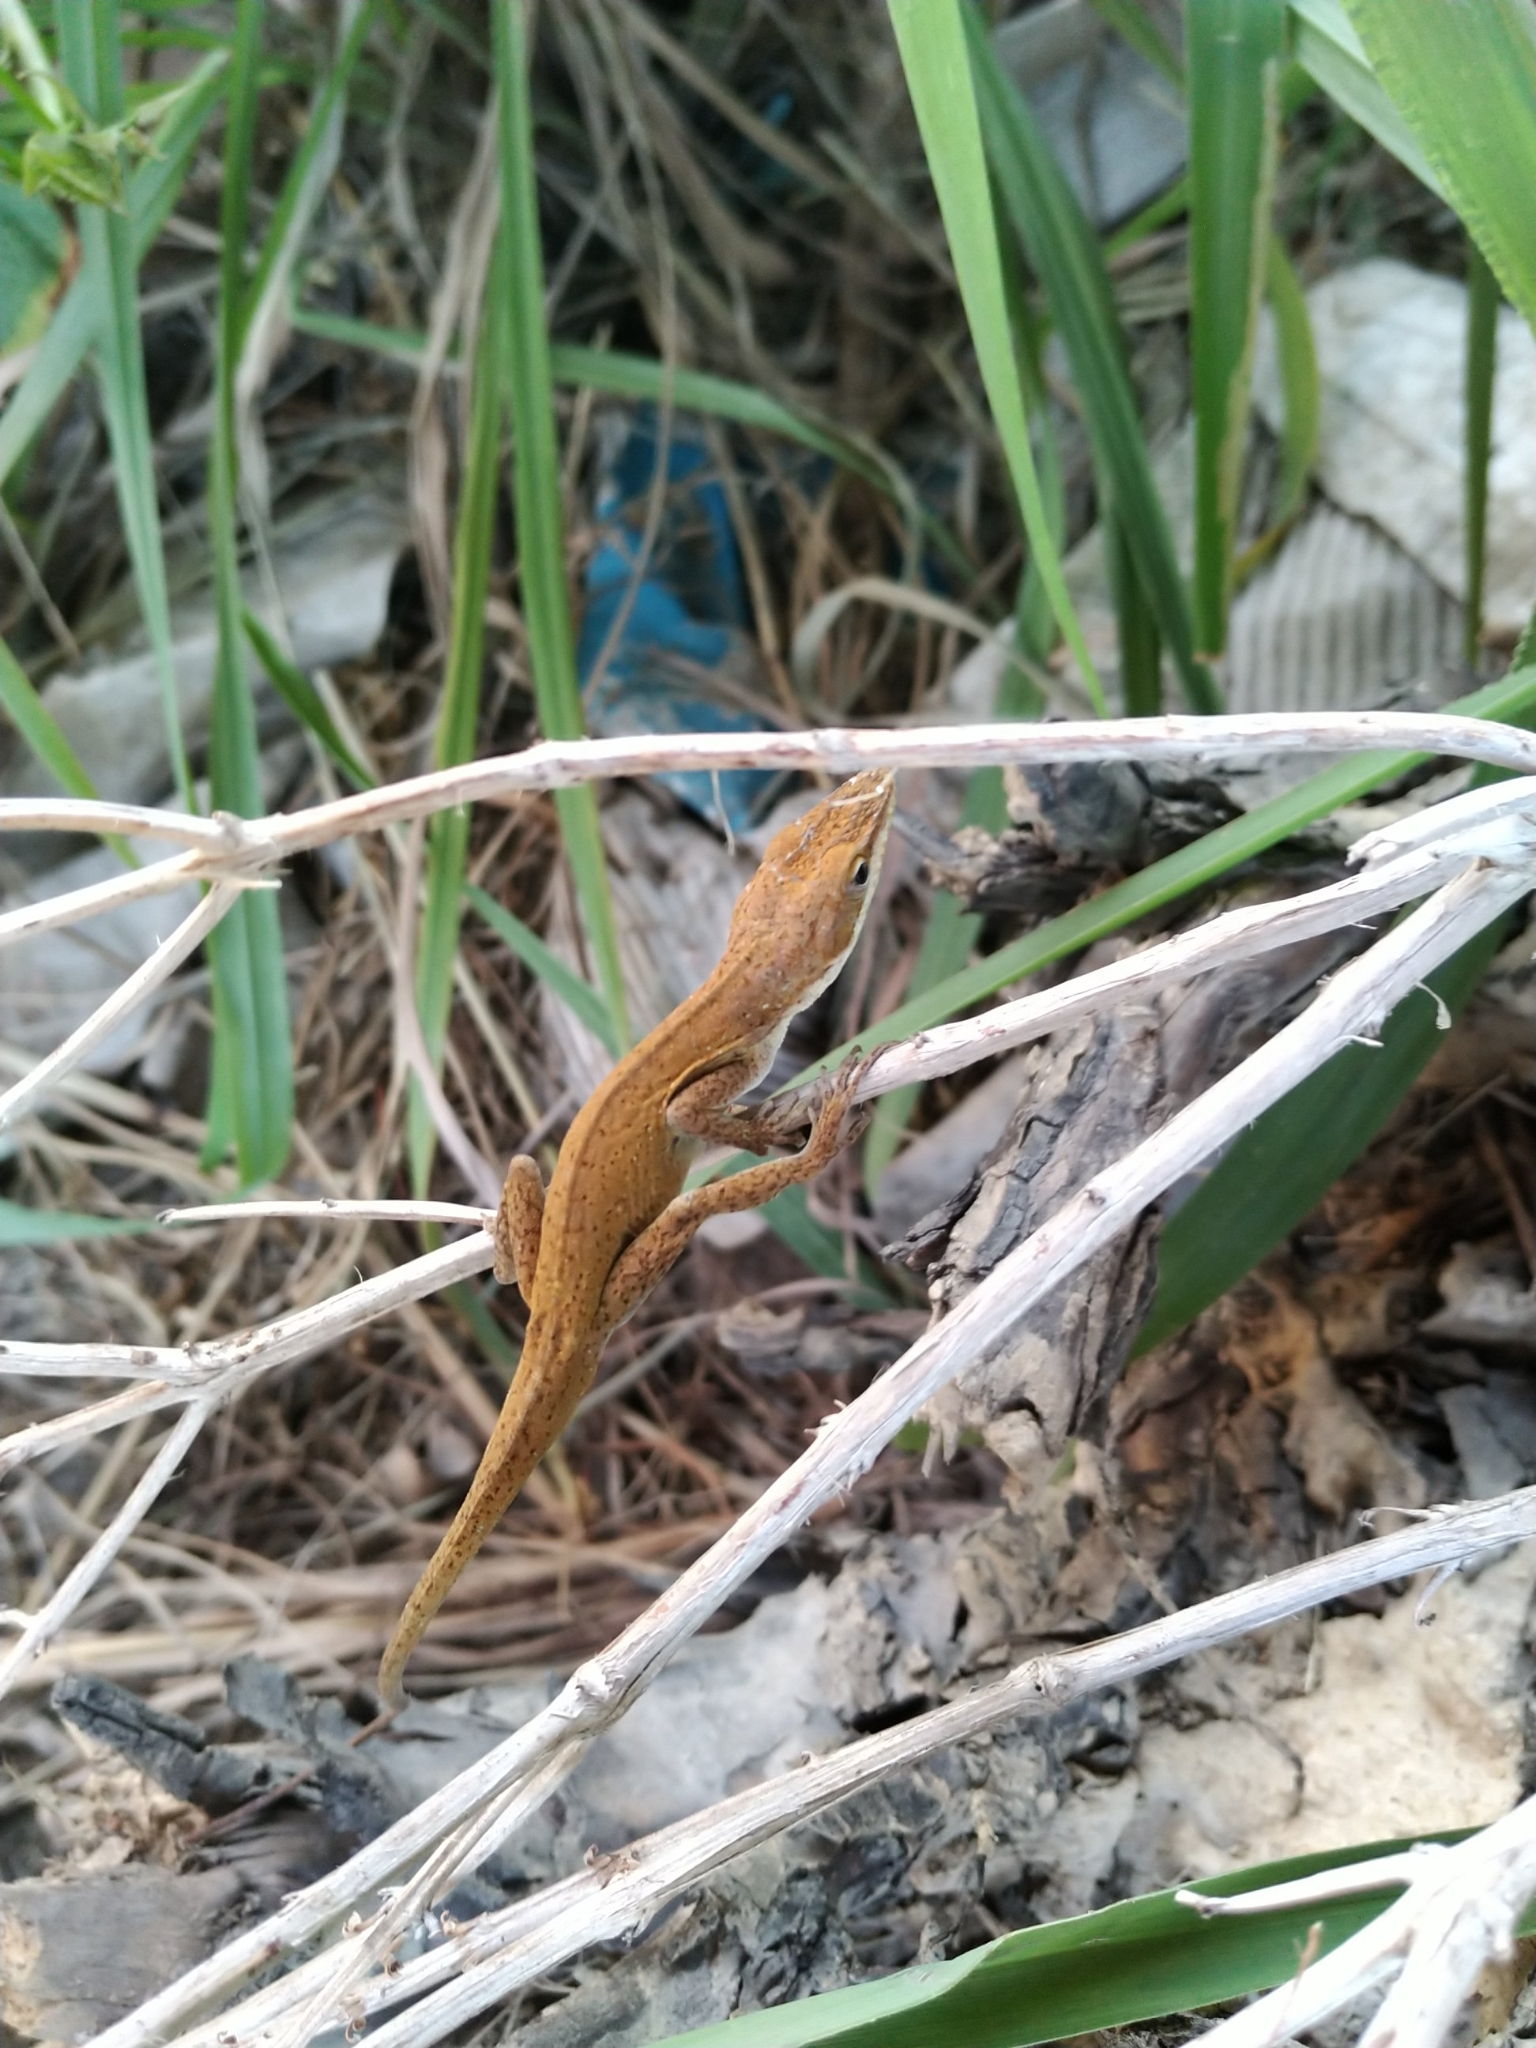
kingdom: Animalia
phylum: Chordata
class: Squamata
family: Dactyloidae
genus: Anolis
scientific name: Anolis carolinensis
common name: Green anole
